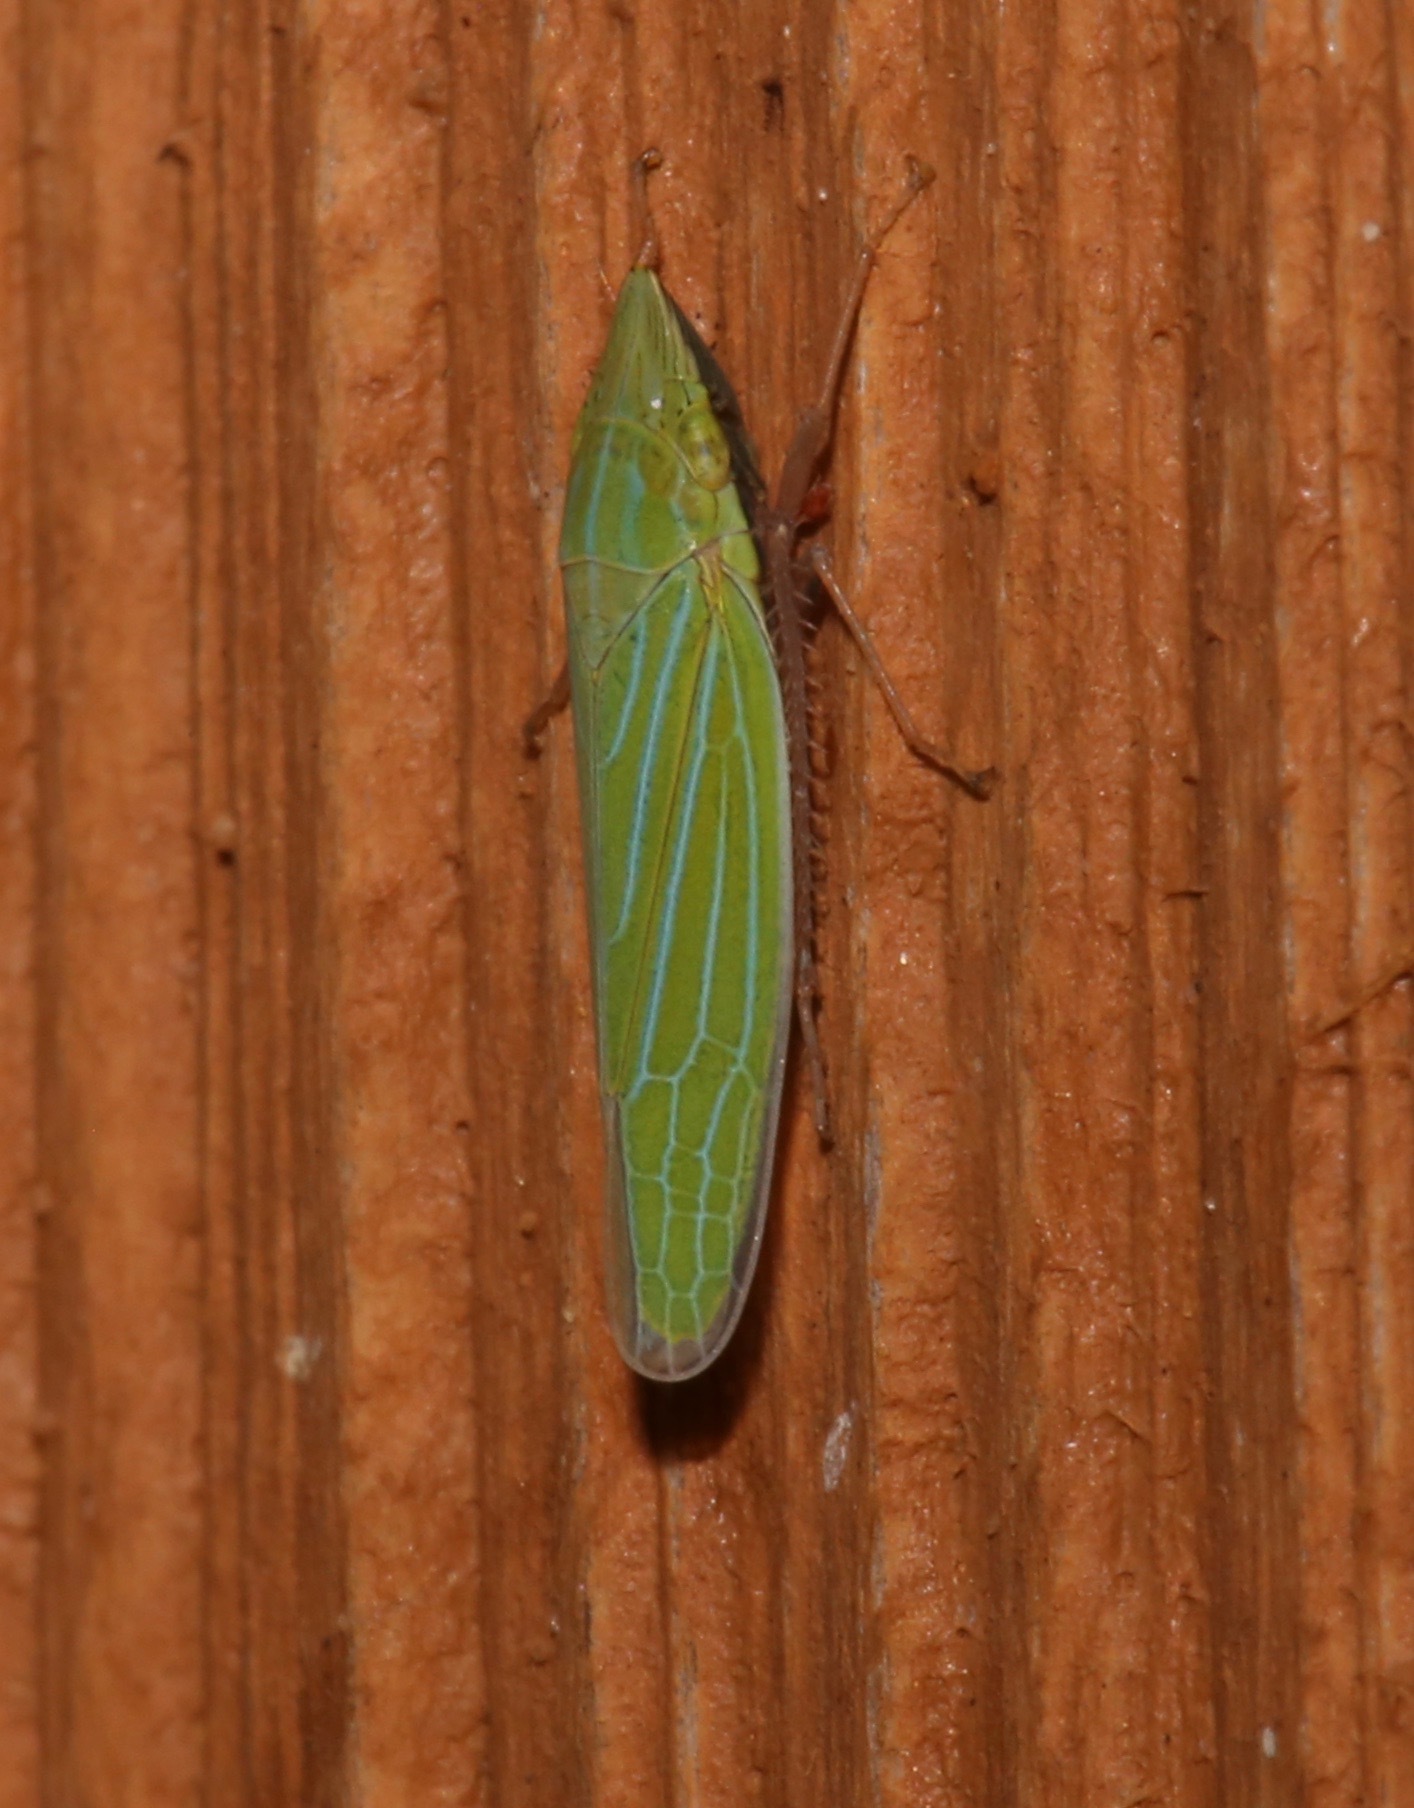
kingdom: Animalia
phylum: Arthropoda
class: Insecta
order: Hemiptera
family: Cicadellidae
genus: Draeculacephala
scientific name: Draeculacephala robinsoni
